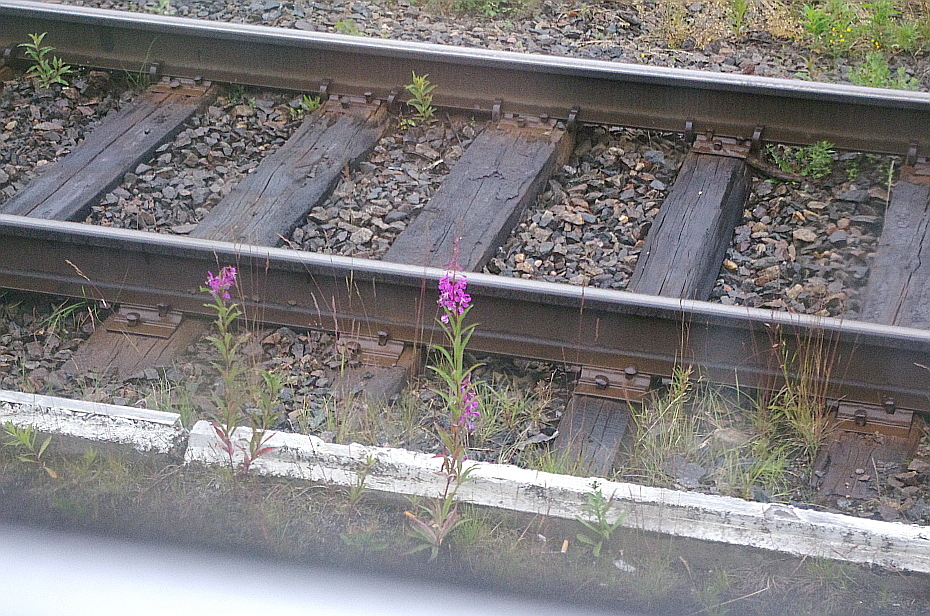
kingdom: Plantae
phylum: Tracheophyta
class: Magnoliopsida
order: Myrtales
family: Onagraceae
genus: Chamaenerion
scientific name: Chamaenerion angustifolium
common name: Fireweed
